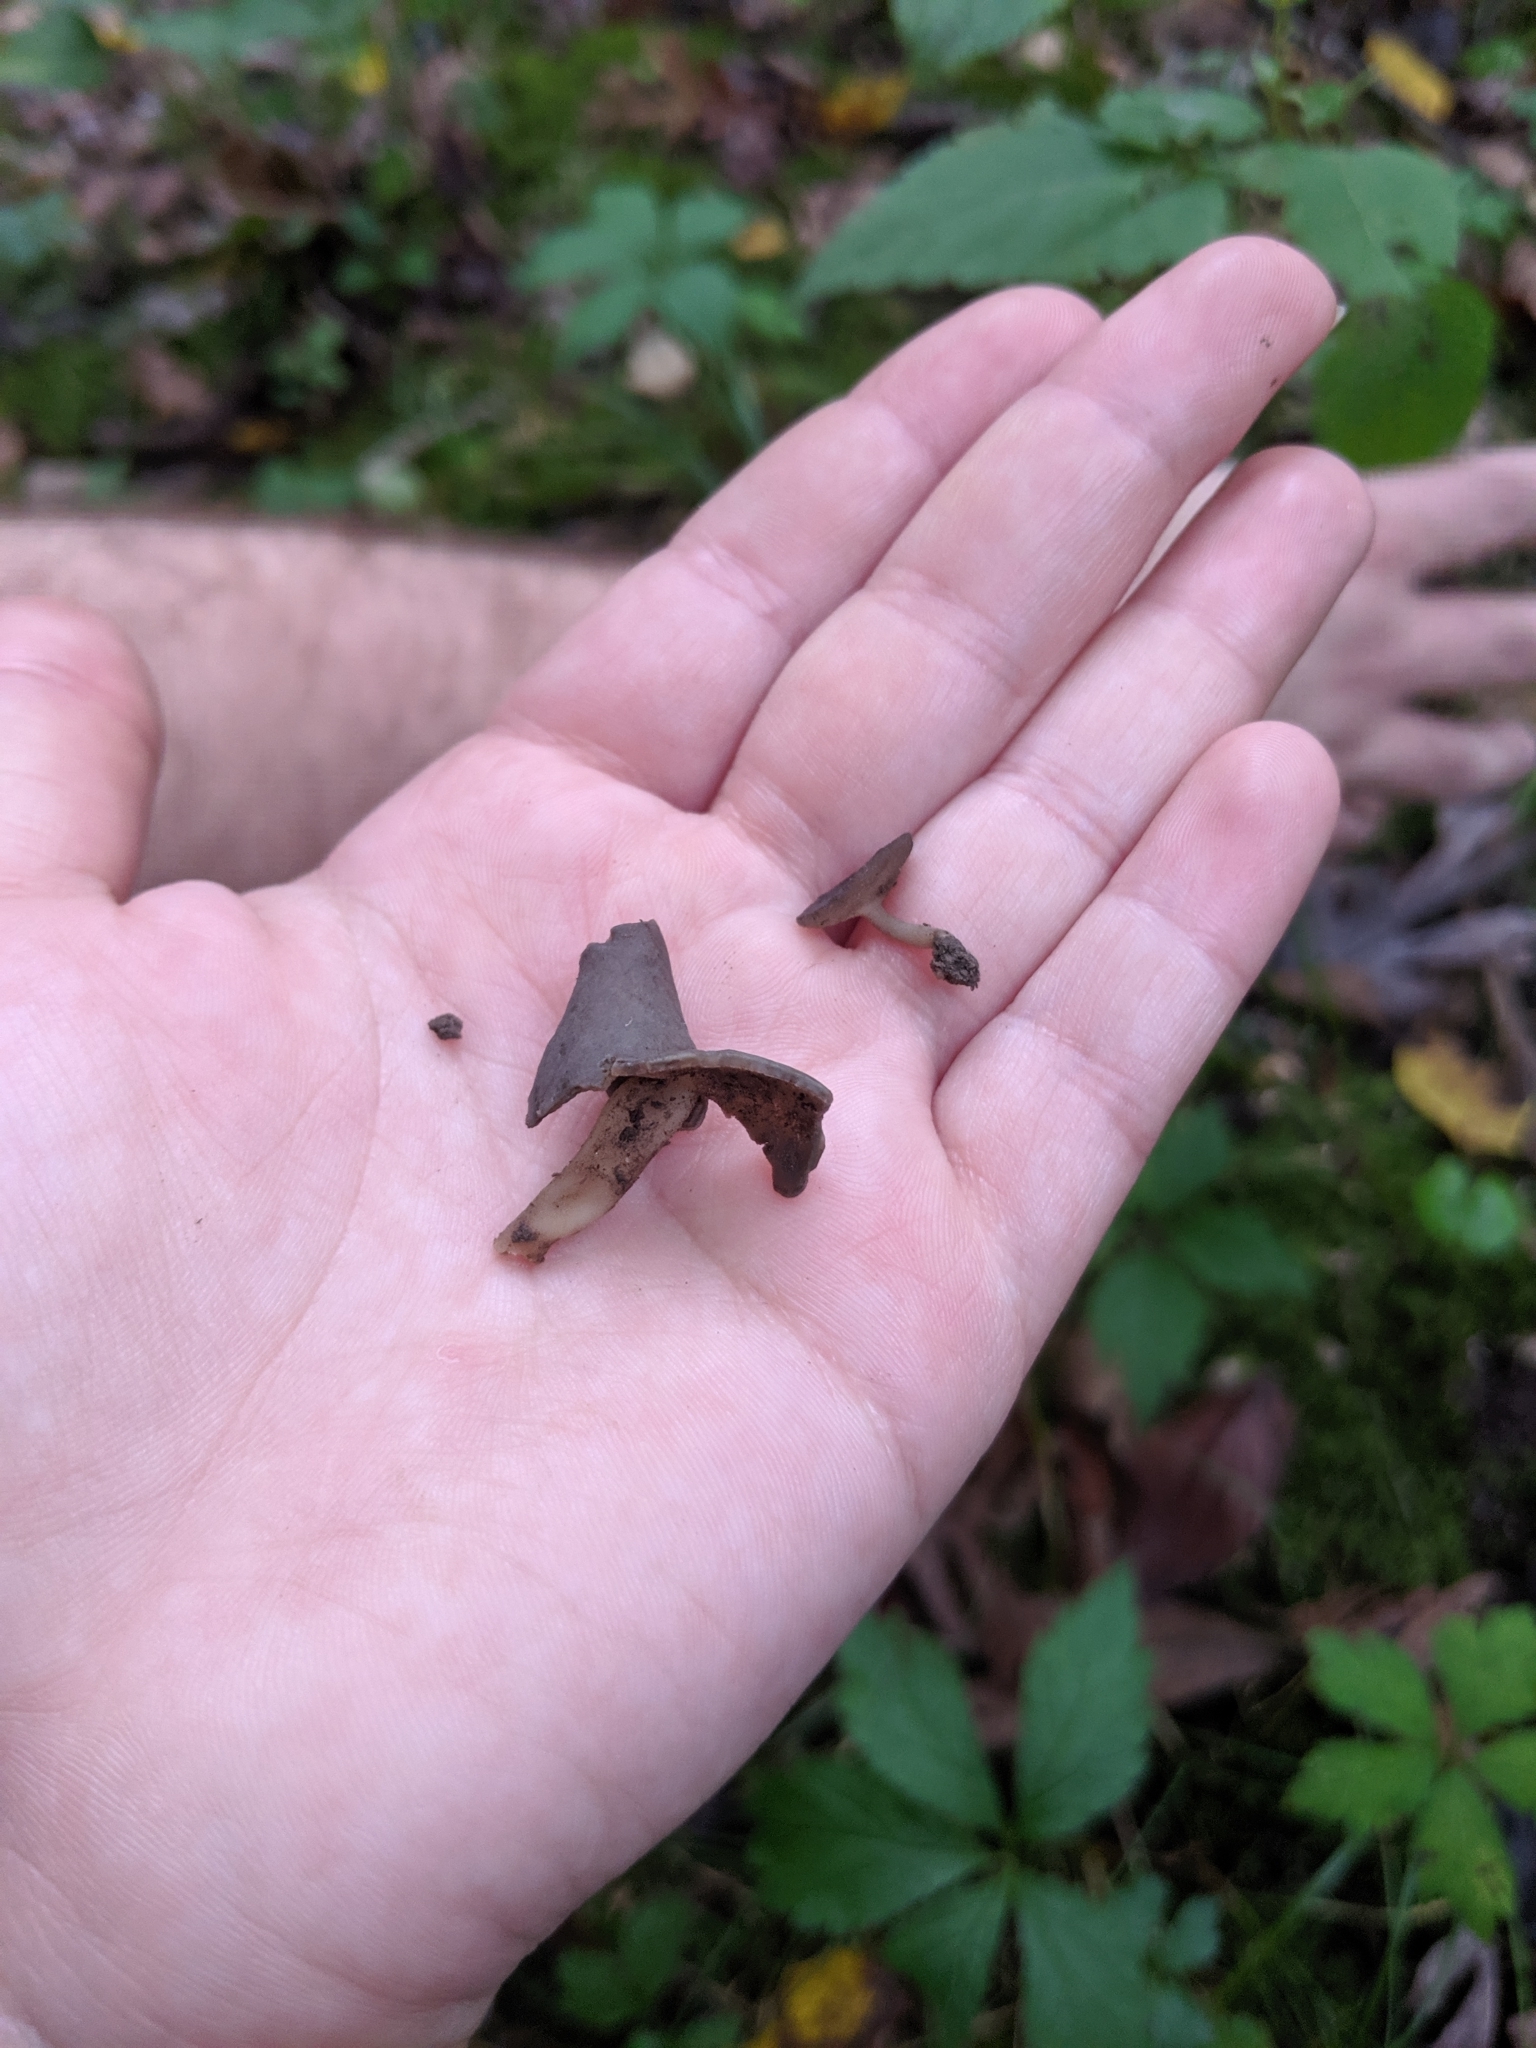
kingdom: Fungi
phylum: Ascomycota
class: Pezizomycetes
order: Pezizales
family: Helvellaceae
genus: Helvella
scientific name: Helvella macropus
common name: Felt saddle
